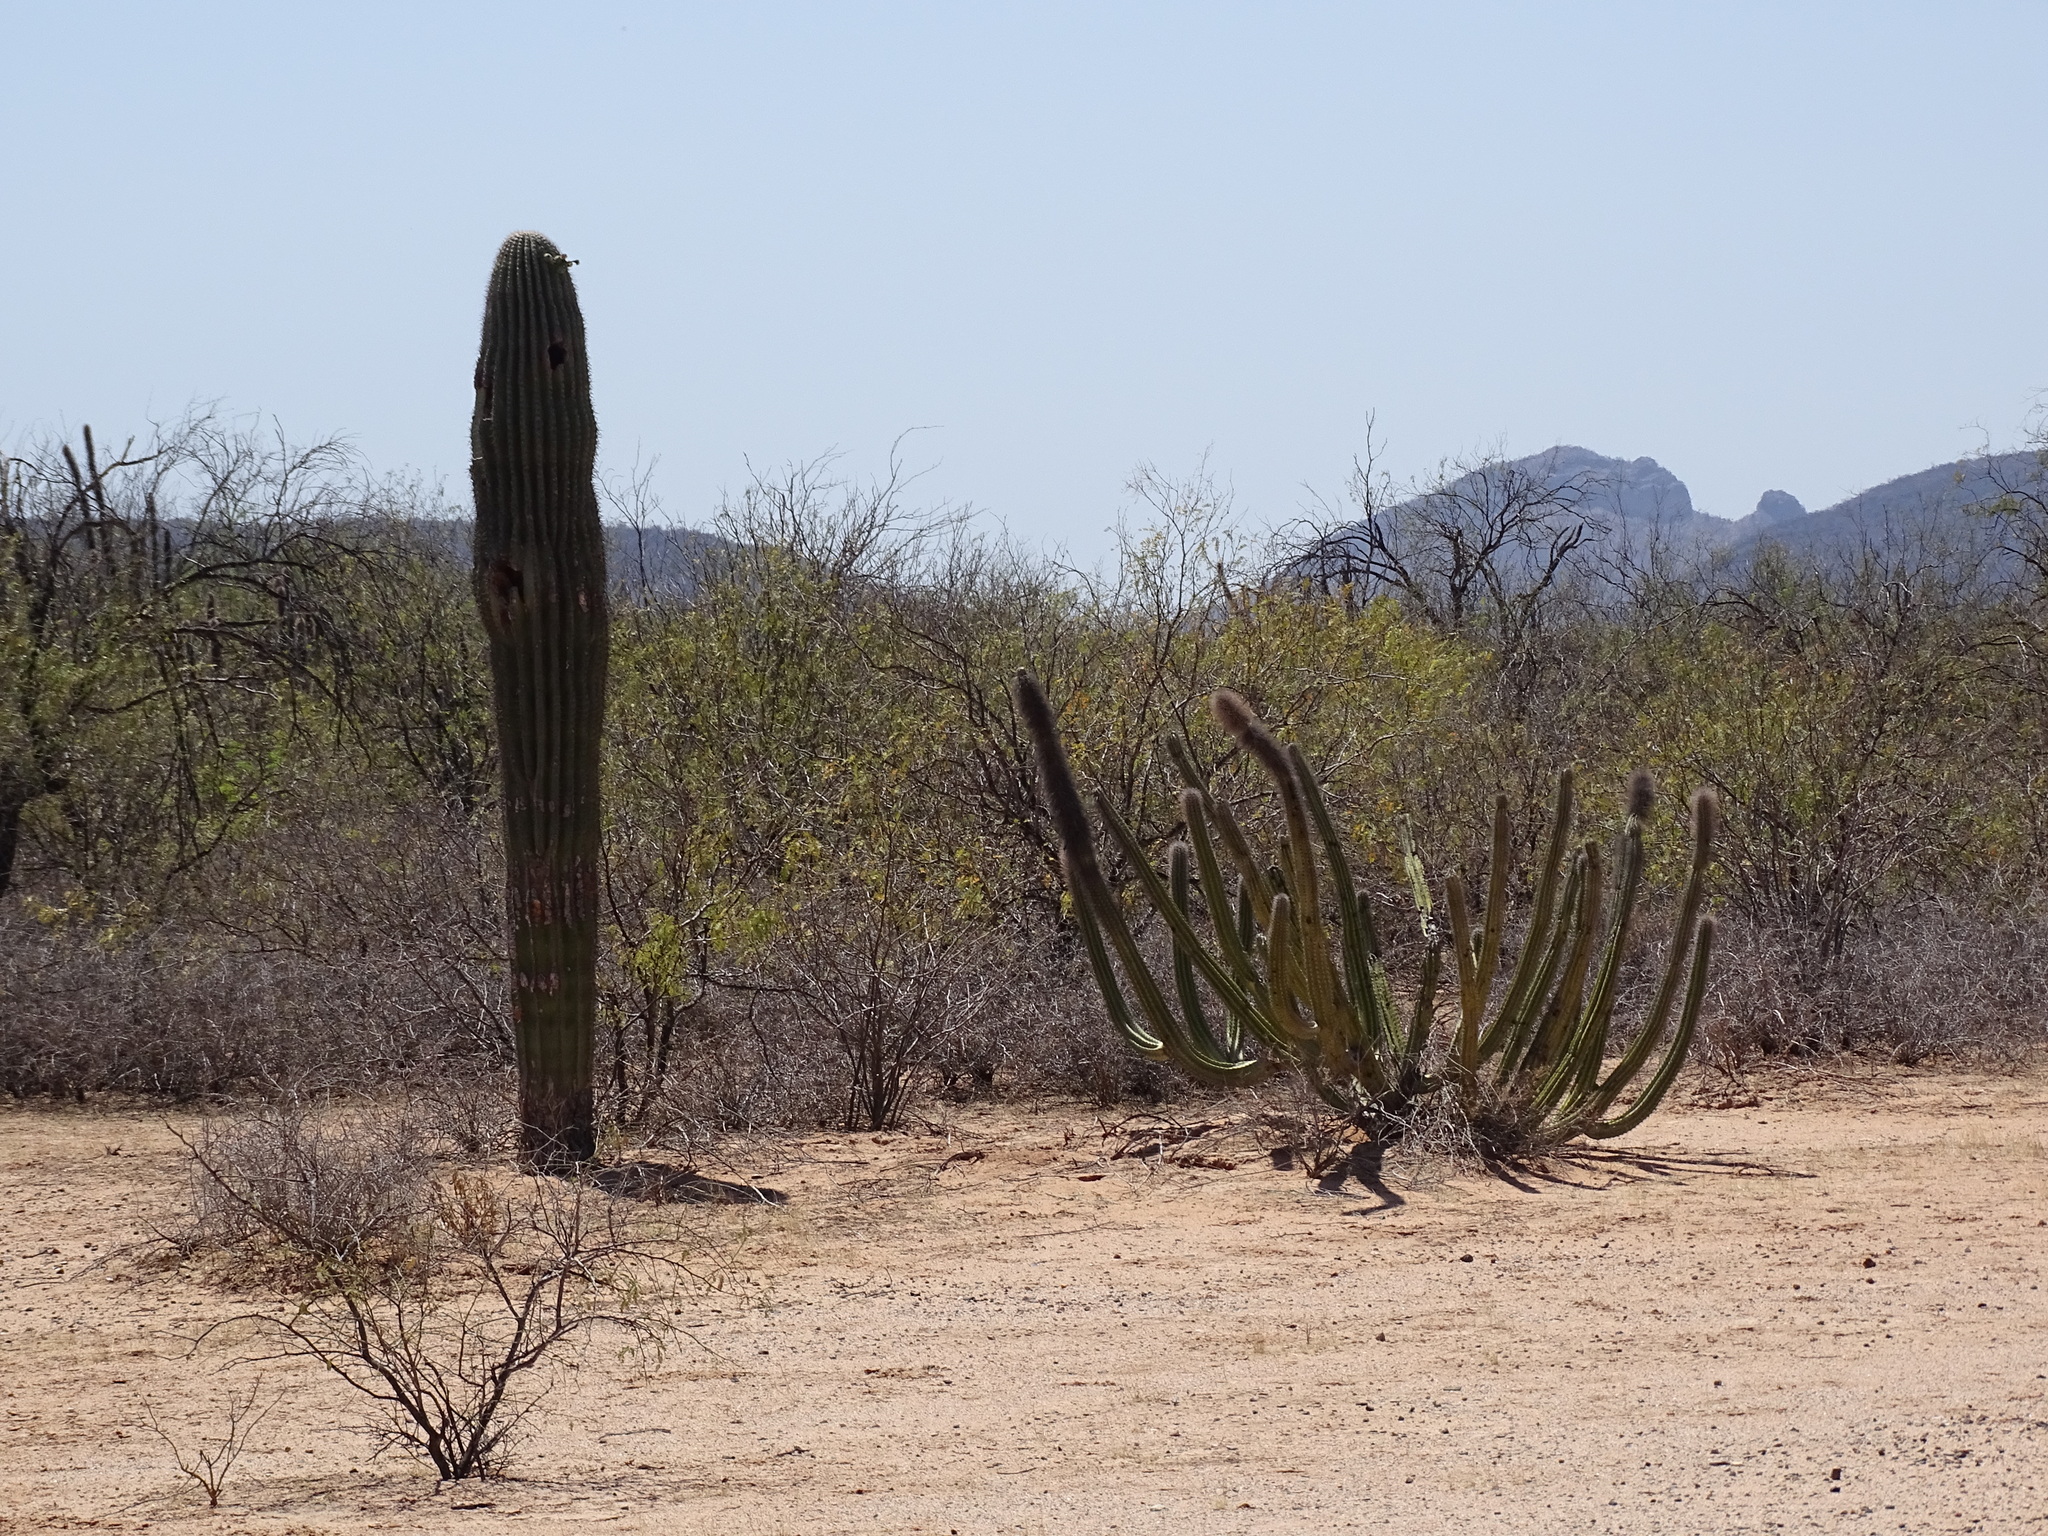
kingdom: Plantae
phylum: Tracheophyta
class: Magnoliopsida
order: Caryophyllales
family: Cactaceae
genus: Pachycereus
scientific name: Pachycereus schottii
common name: Senita cactus
